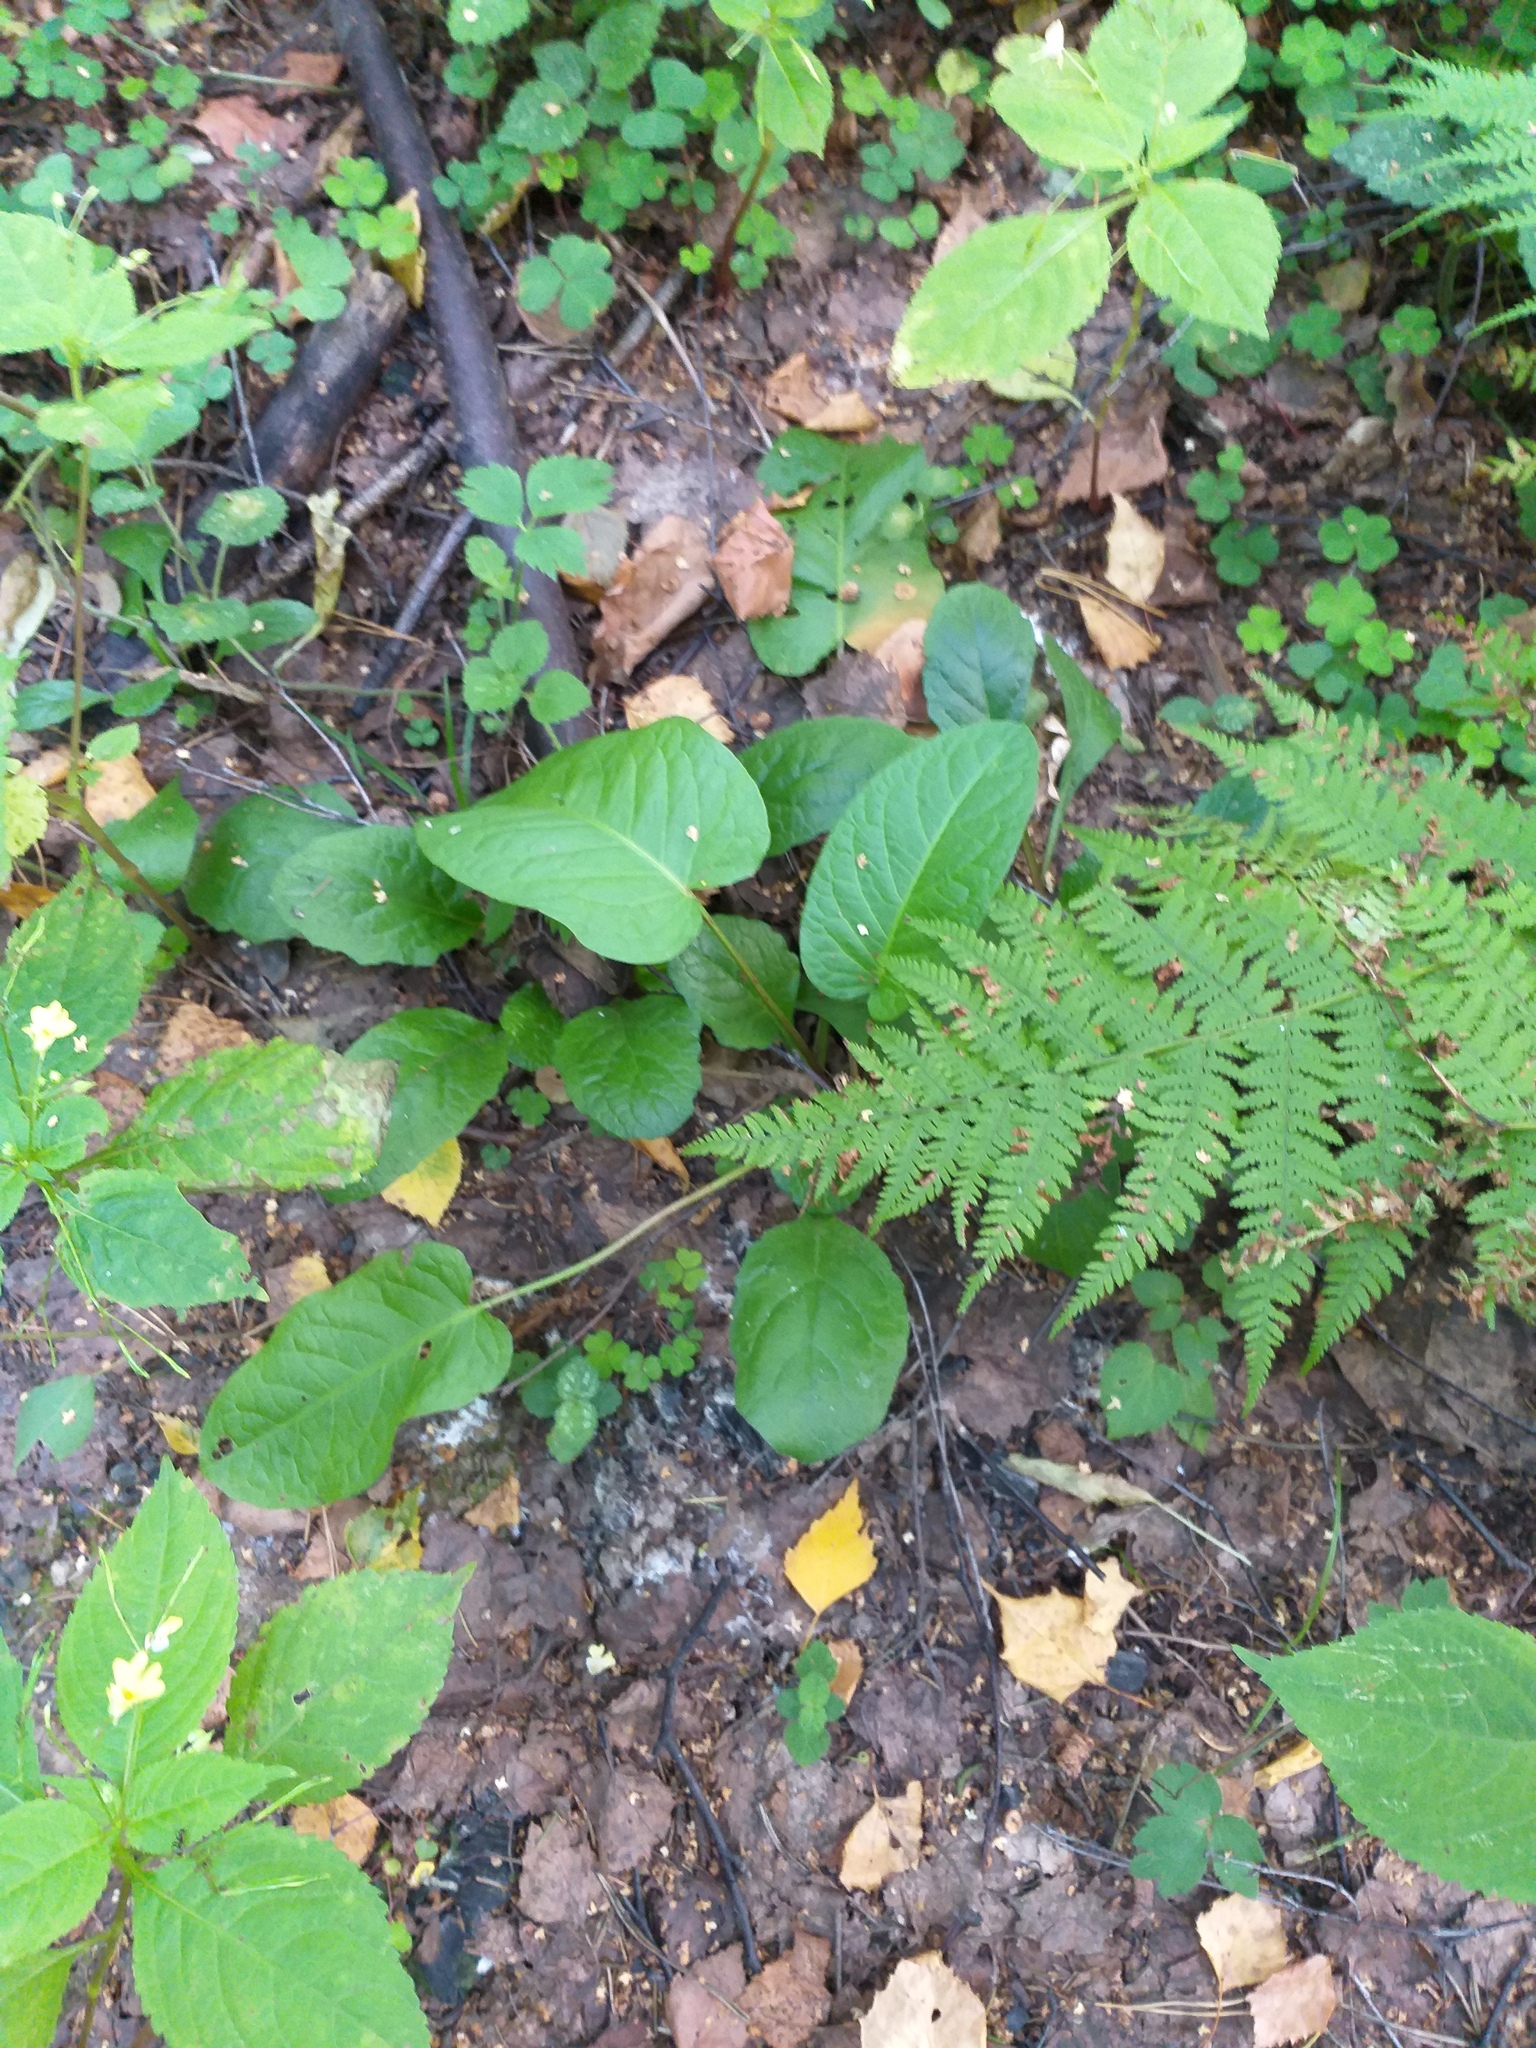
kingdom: Plantae
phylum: Tracheophyta
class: Magnoliopsida
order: Caryophyllales
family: Polygonaceae
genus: Rumex
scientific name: Rumex obtusifolius
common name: Bitter dock
